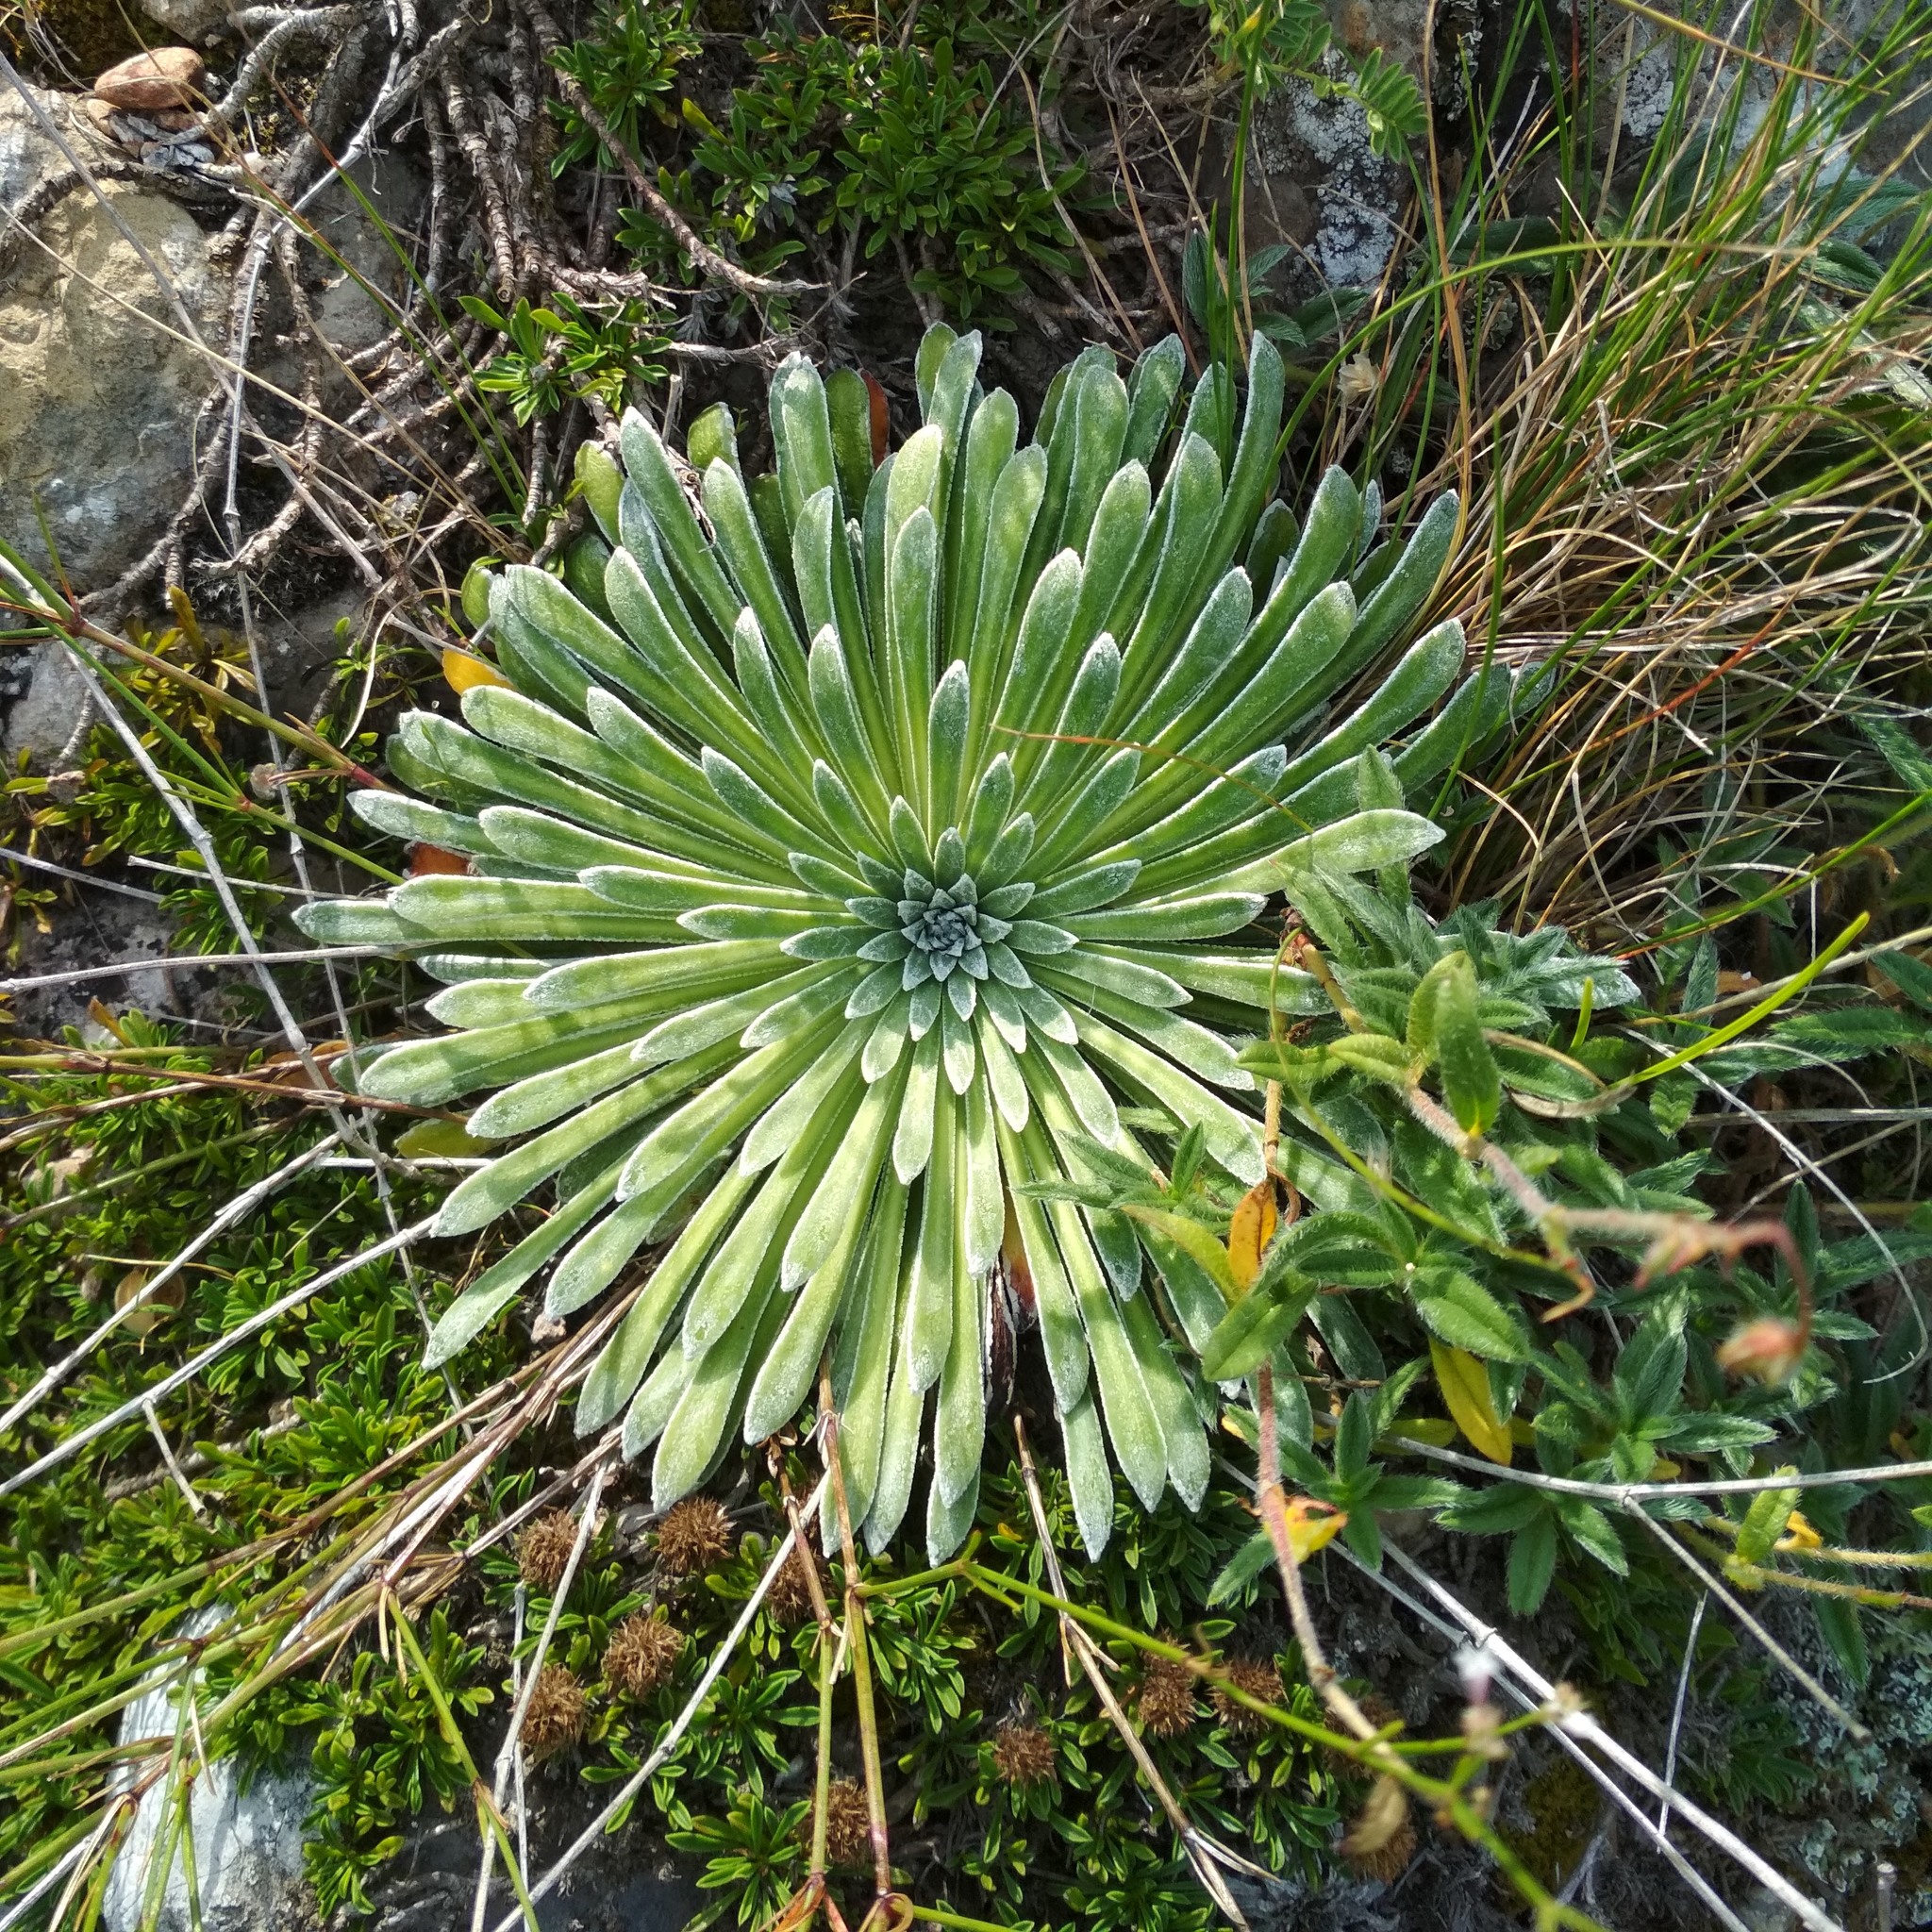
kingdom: Plantae
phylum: Tracheophyta
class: Magnoliopsida
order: Saxifragales
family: Saxifragaceae
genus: Saxifraga
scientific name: Saxifraga longifolia
